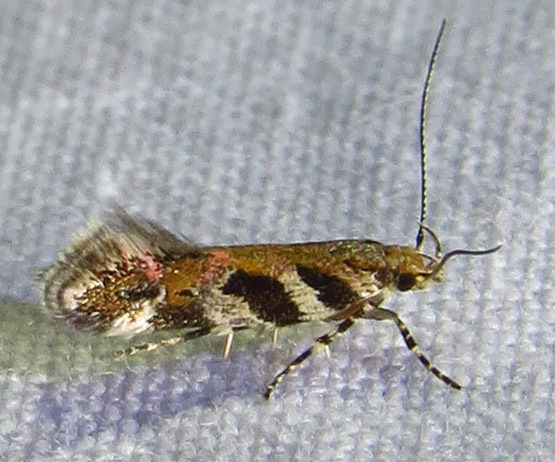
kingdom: Animalia
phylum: Arthropoda
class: Insecta
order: Lepidoptera
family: Gelechiidae
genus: Aristotelia
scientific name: Aristotelia roseosuffusella
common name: Pink-washed aristotelia moth
